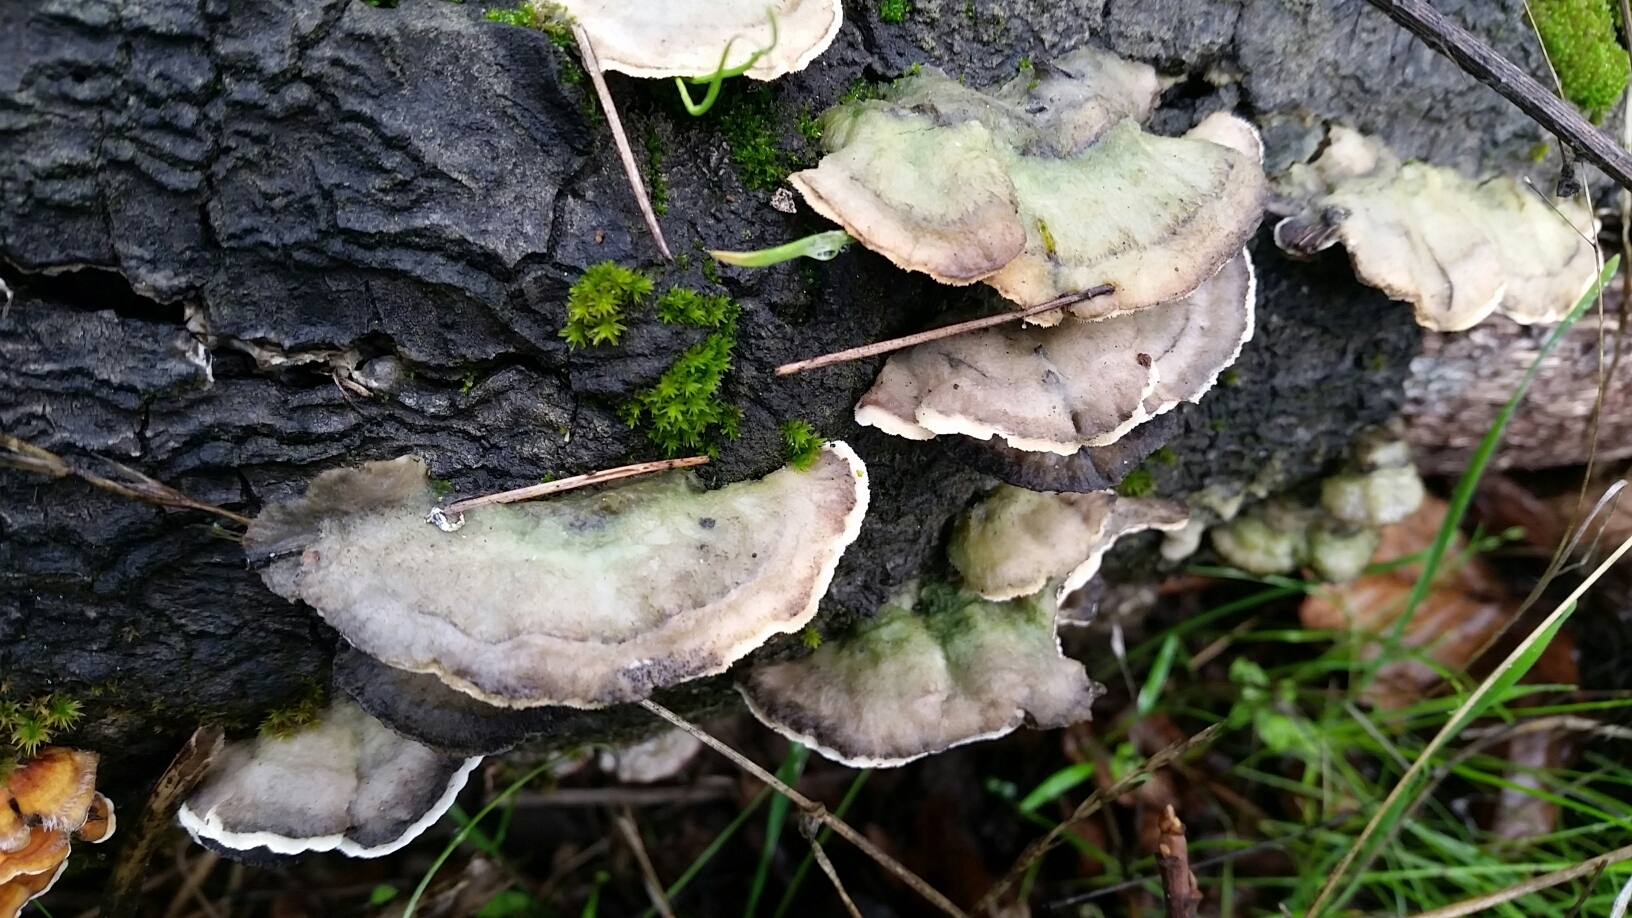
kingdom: Fungi
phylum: Basidiomycota
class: Agaricomycetes
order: Polyporales
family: Polyporaceae
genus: Trametes
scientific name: Trametes hirsuta
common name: Hairy bracket
